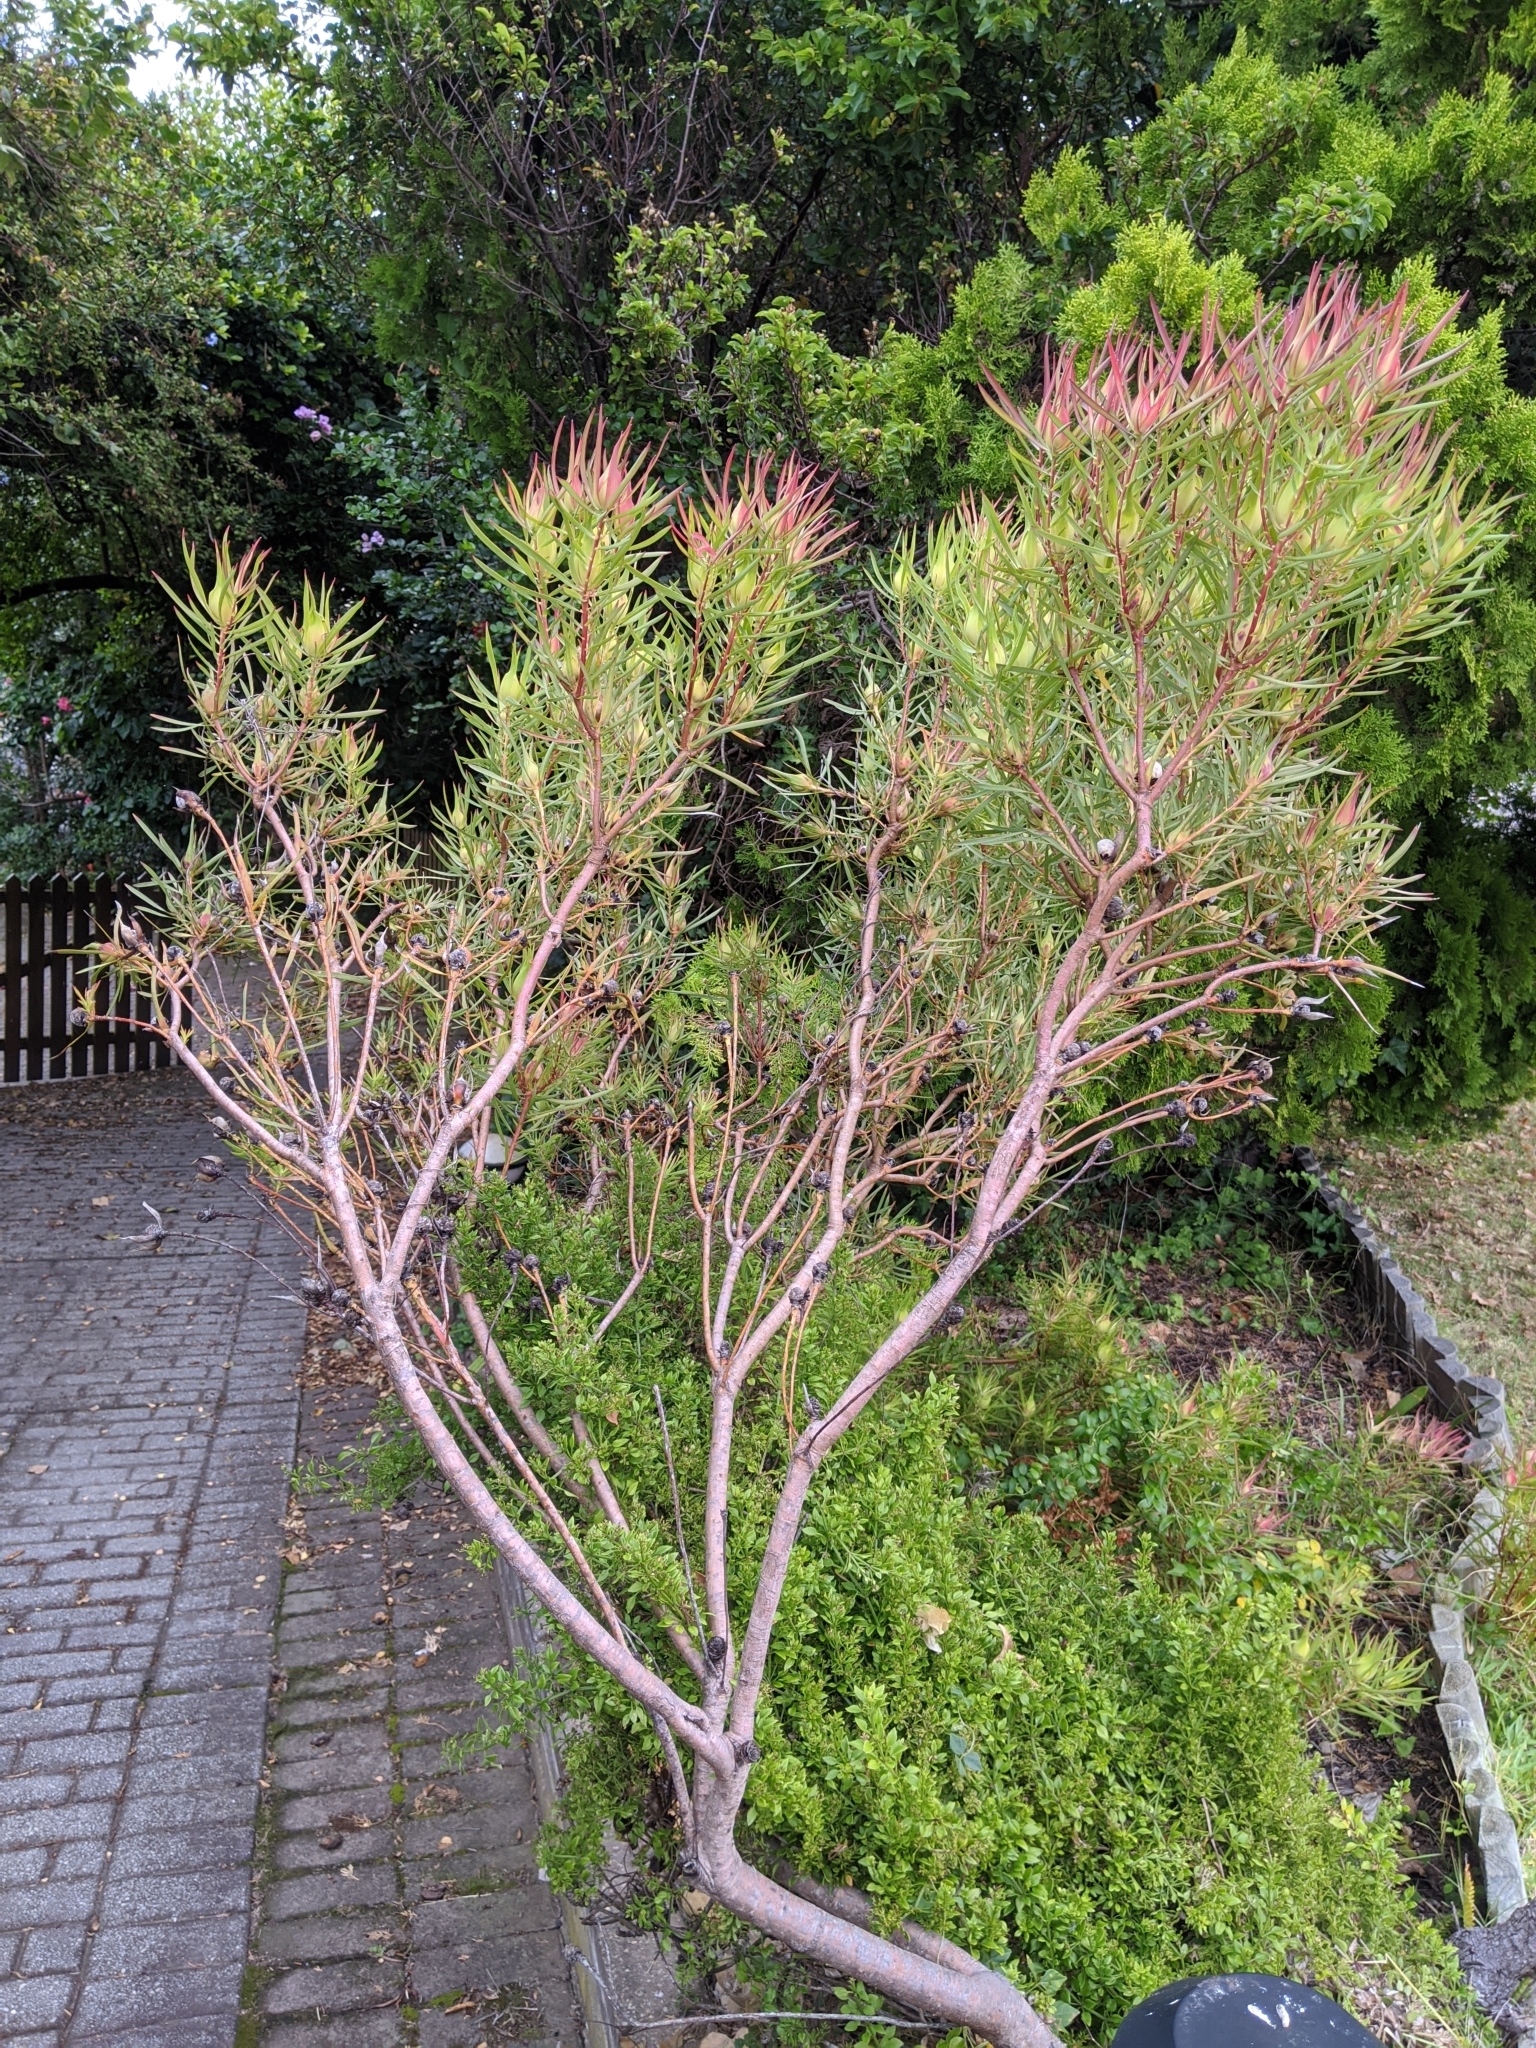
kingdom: Plantae
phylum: Tracheophyta
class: Magnoliopsida
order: Proteales
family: Proteaceae
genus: Leucadendron
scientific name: Leucadendron salignum
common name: Common sunshine conebush
